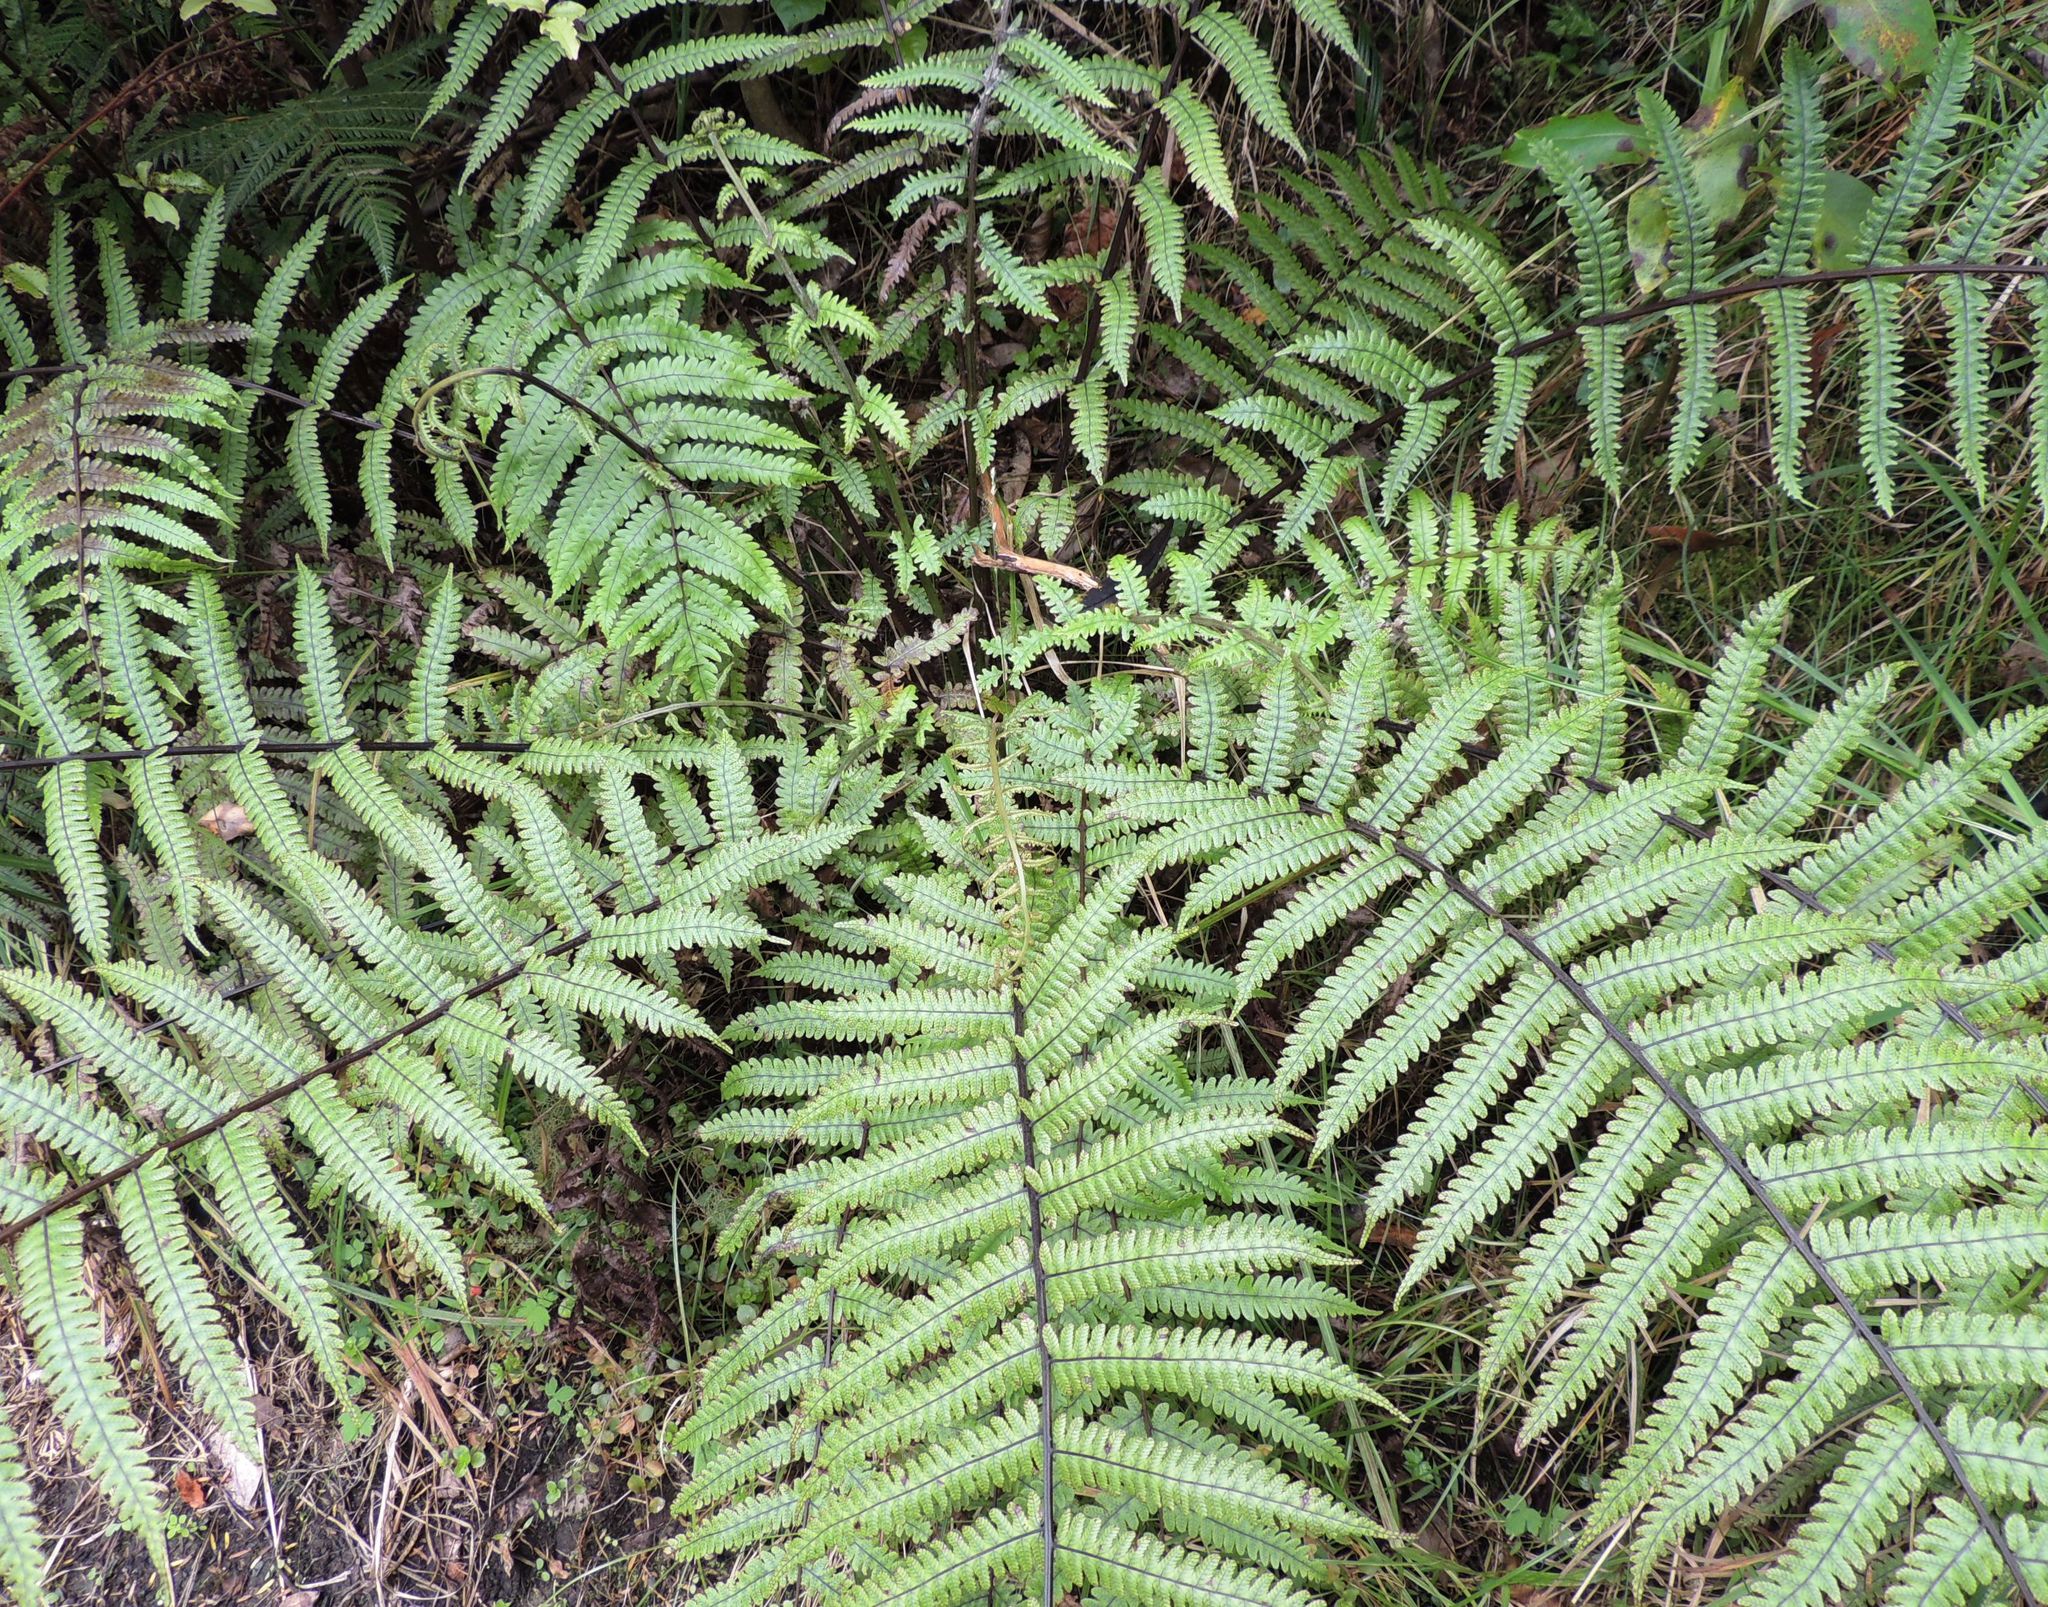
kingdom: Plantae
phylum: Tracheophyta
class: Polypodiopsida
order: Polypodiales
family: Thelypteridaceae
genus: Pakau
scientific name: Pakau pennigera
